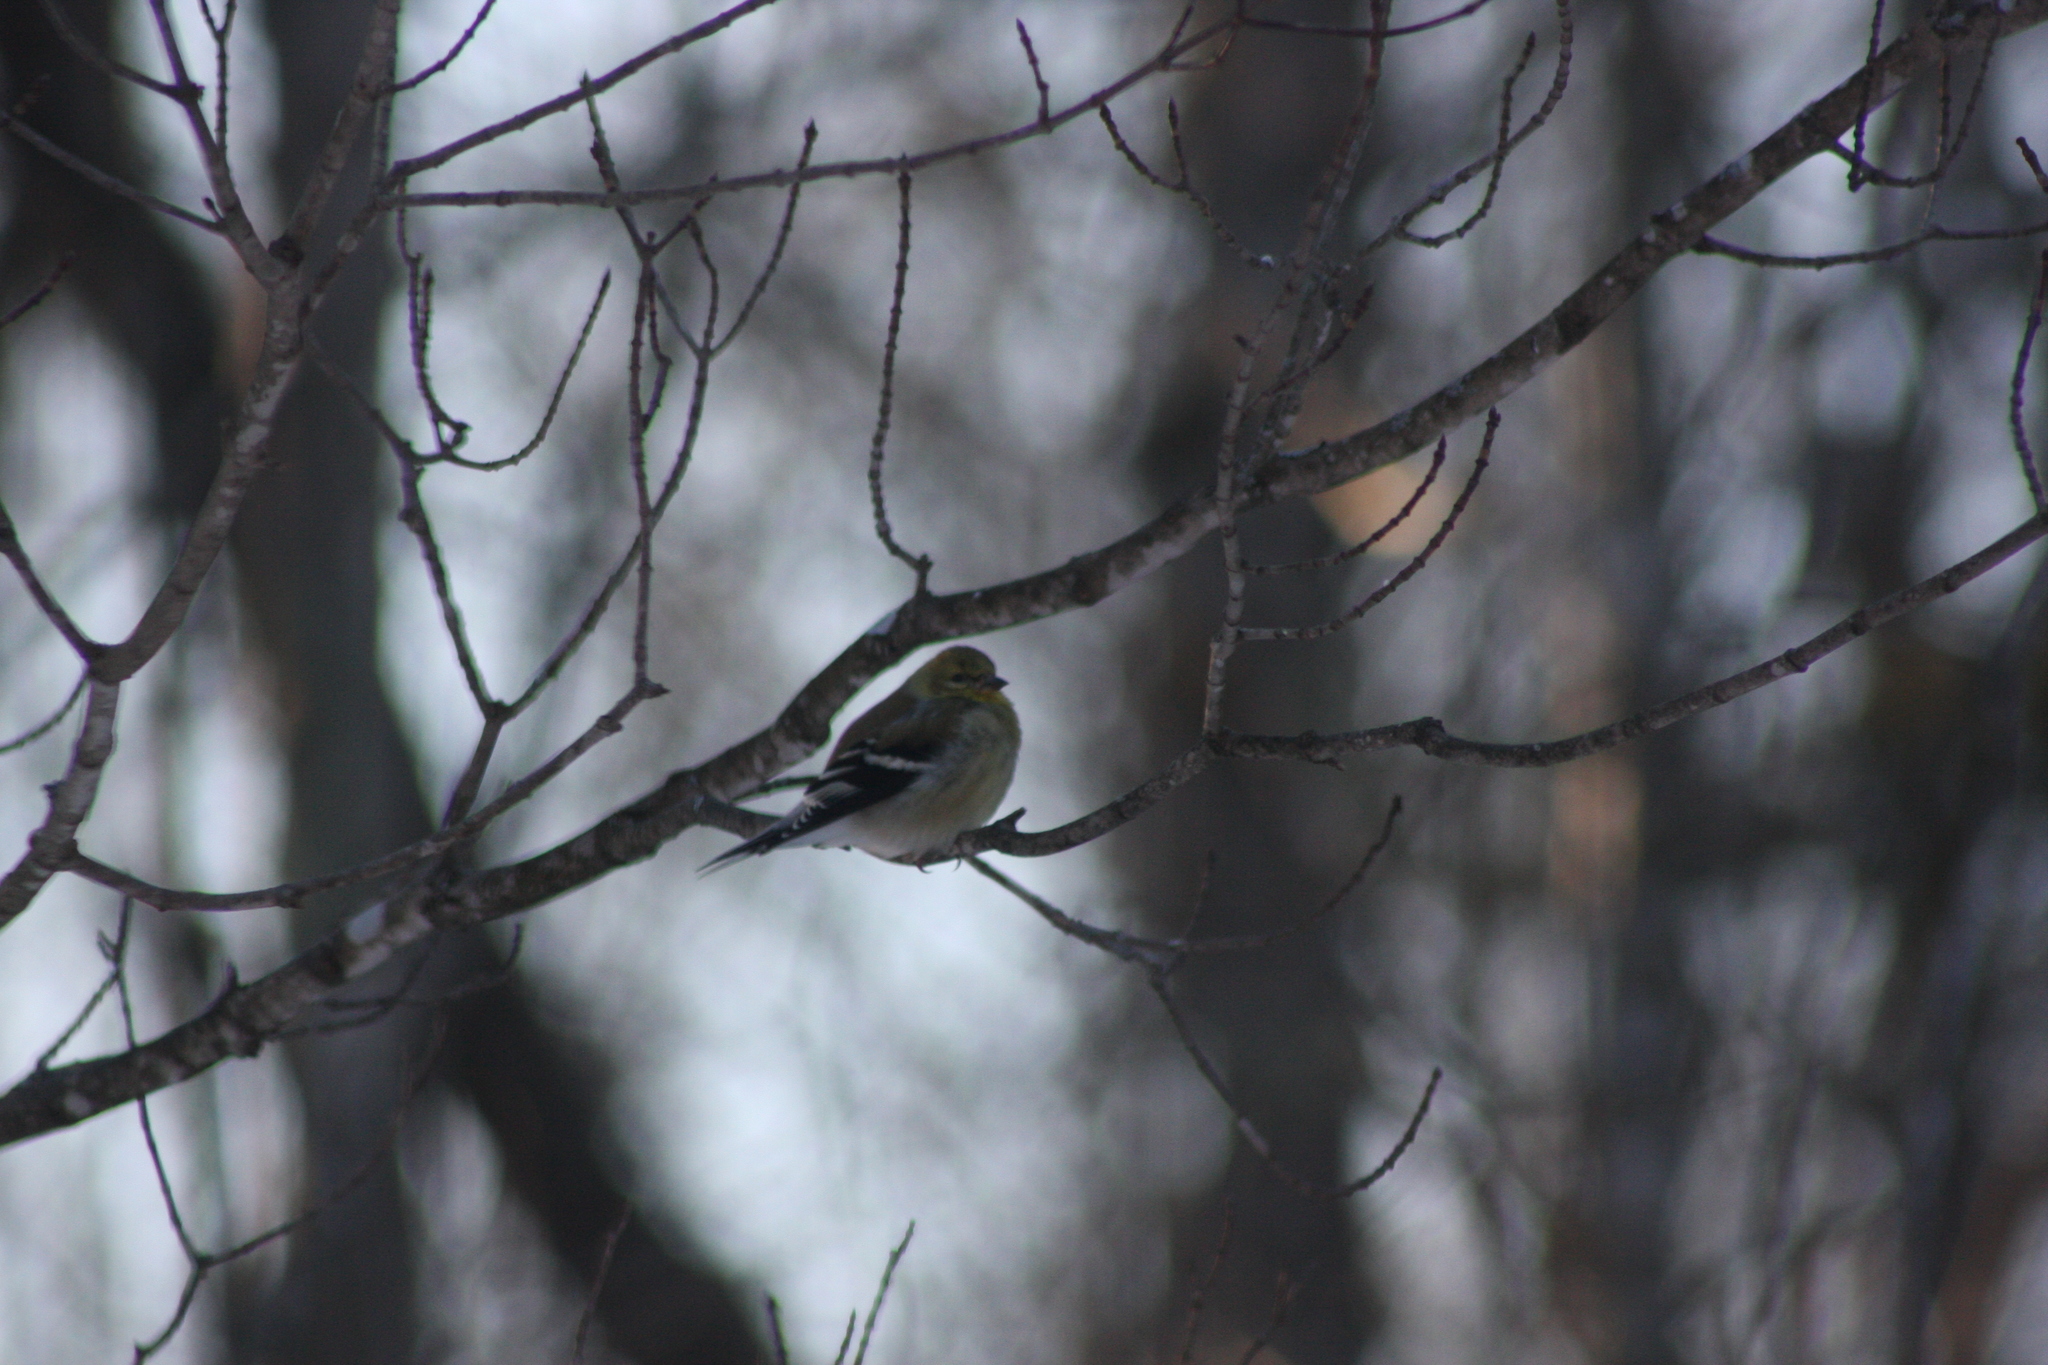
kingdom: Animalia
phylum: Chordata
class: Aves
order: Passeriformes
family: Fringillidae
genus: Spinus
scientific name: Spinus tristis
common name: American goldfinch
